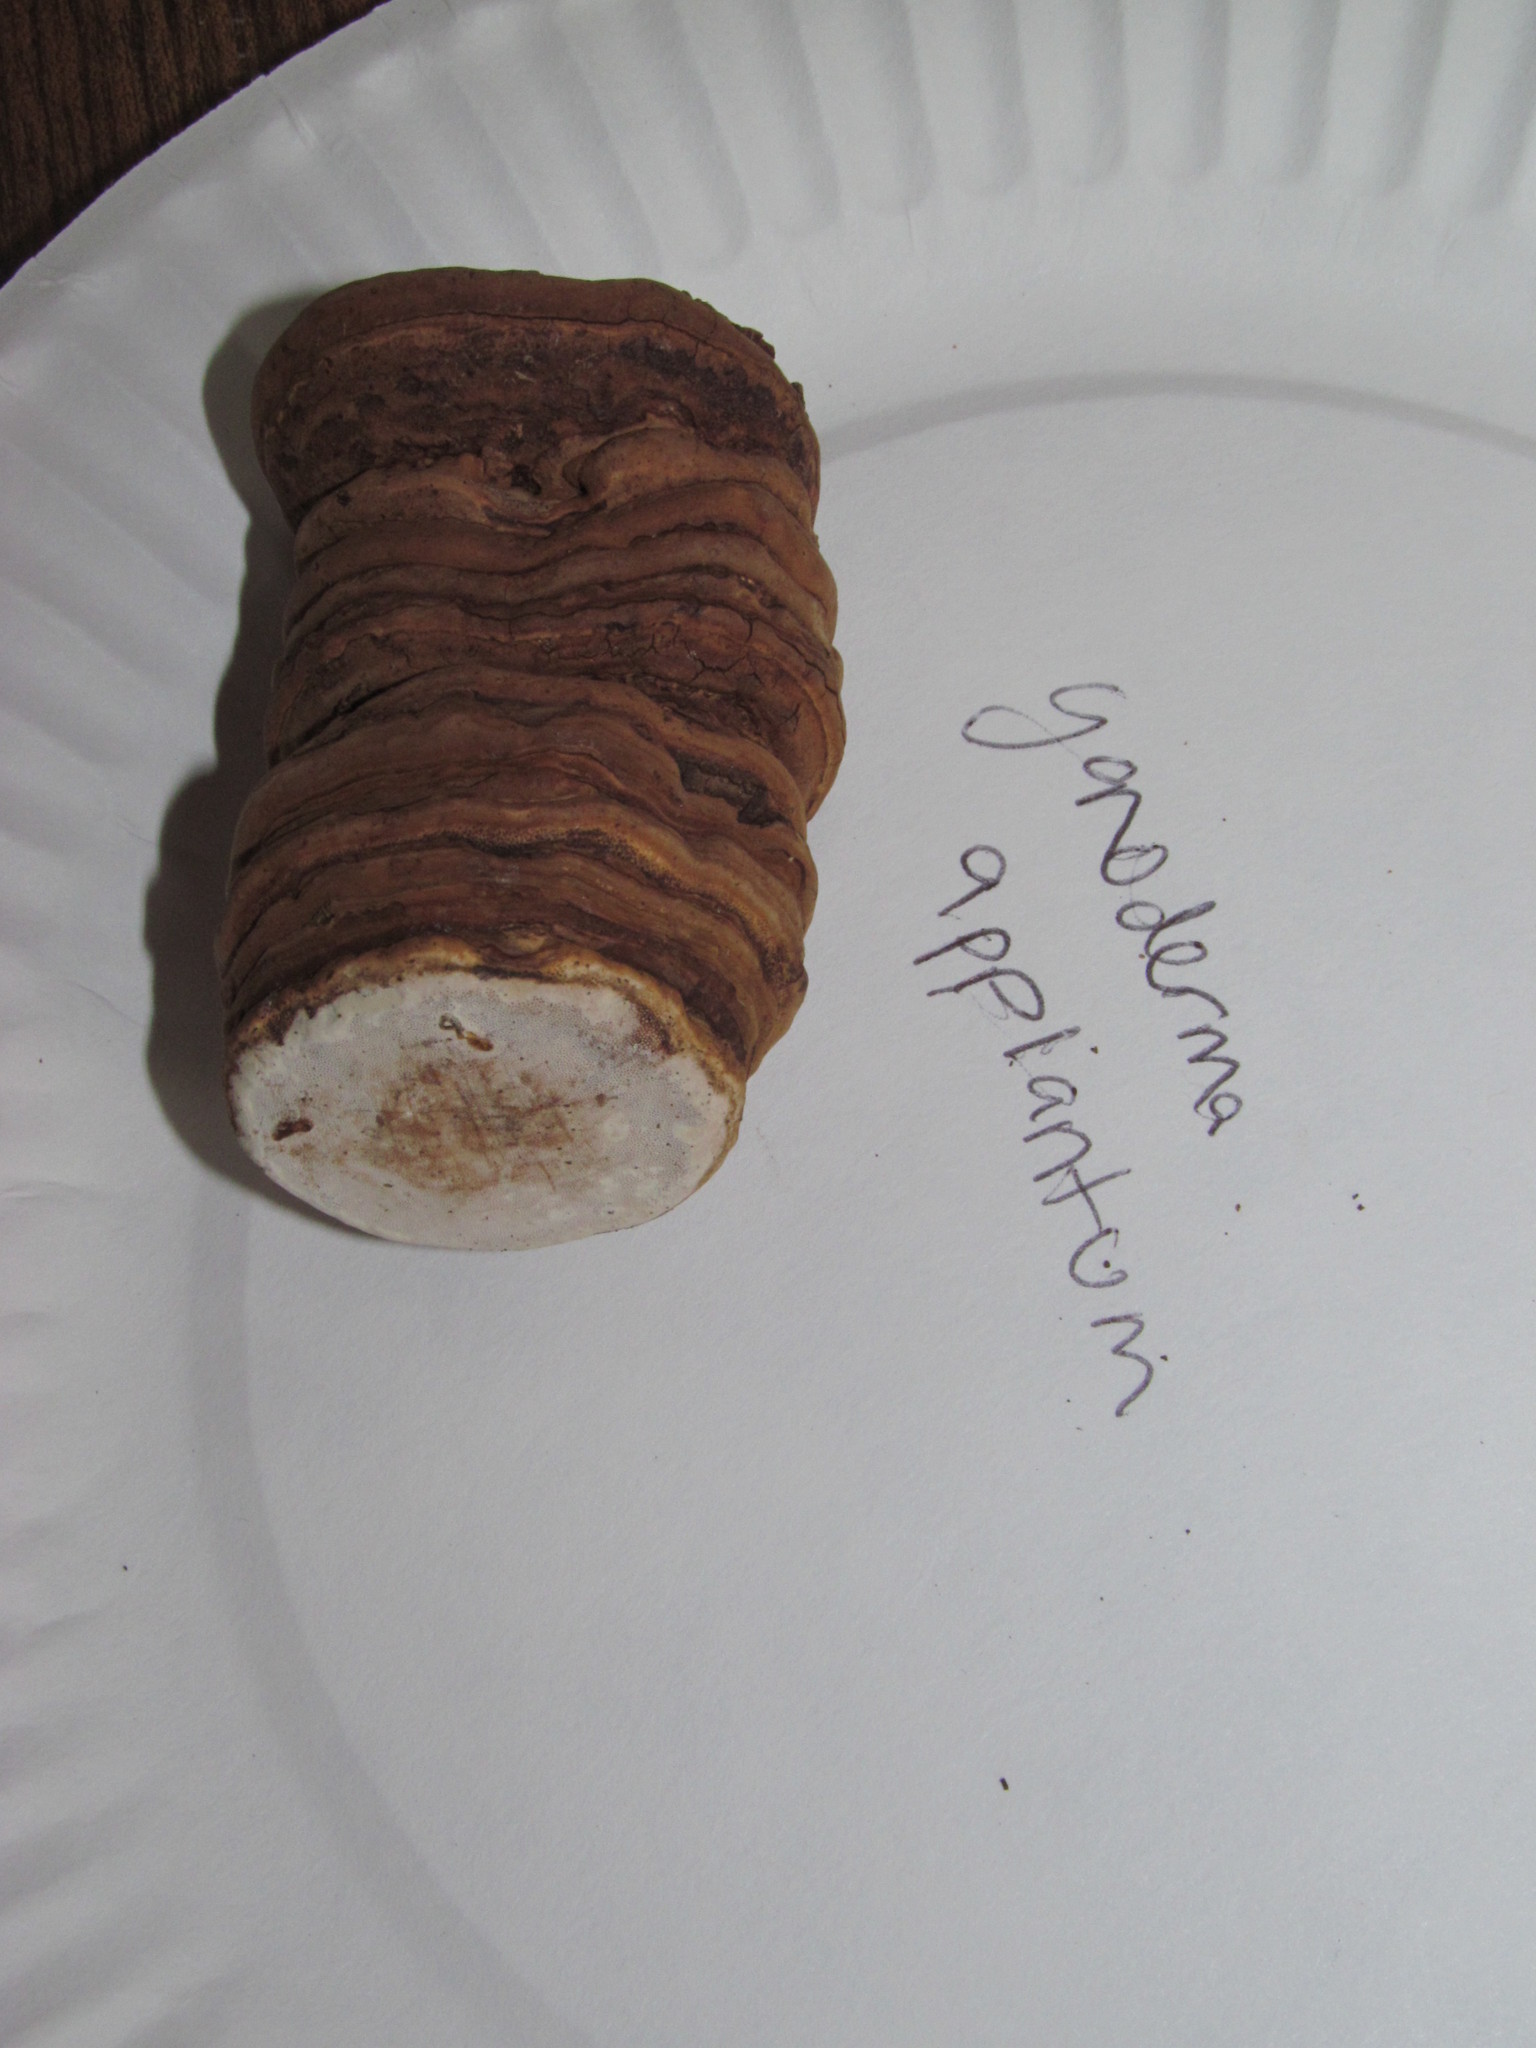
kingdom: Fungi
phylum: Basidiomycota
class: Agaricomycetes
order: Polyporales
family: Polyporaceae
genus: Ganoderma
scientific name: Ganoderma applanatum
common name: Artist's bracket
